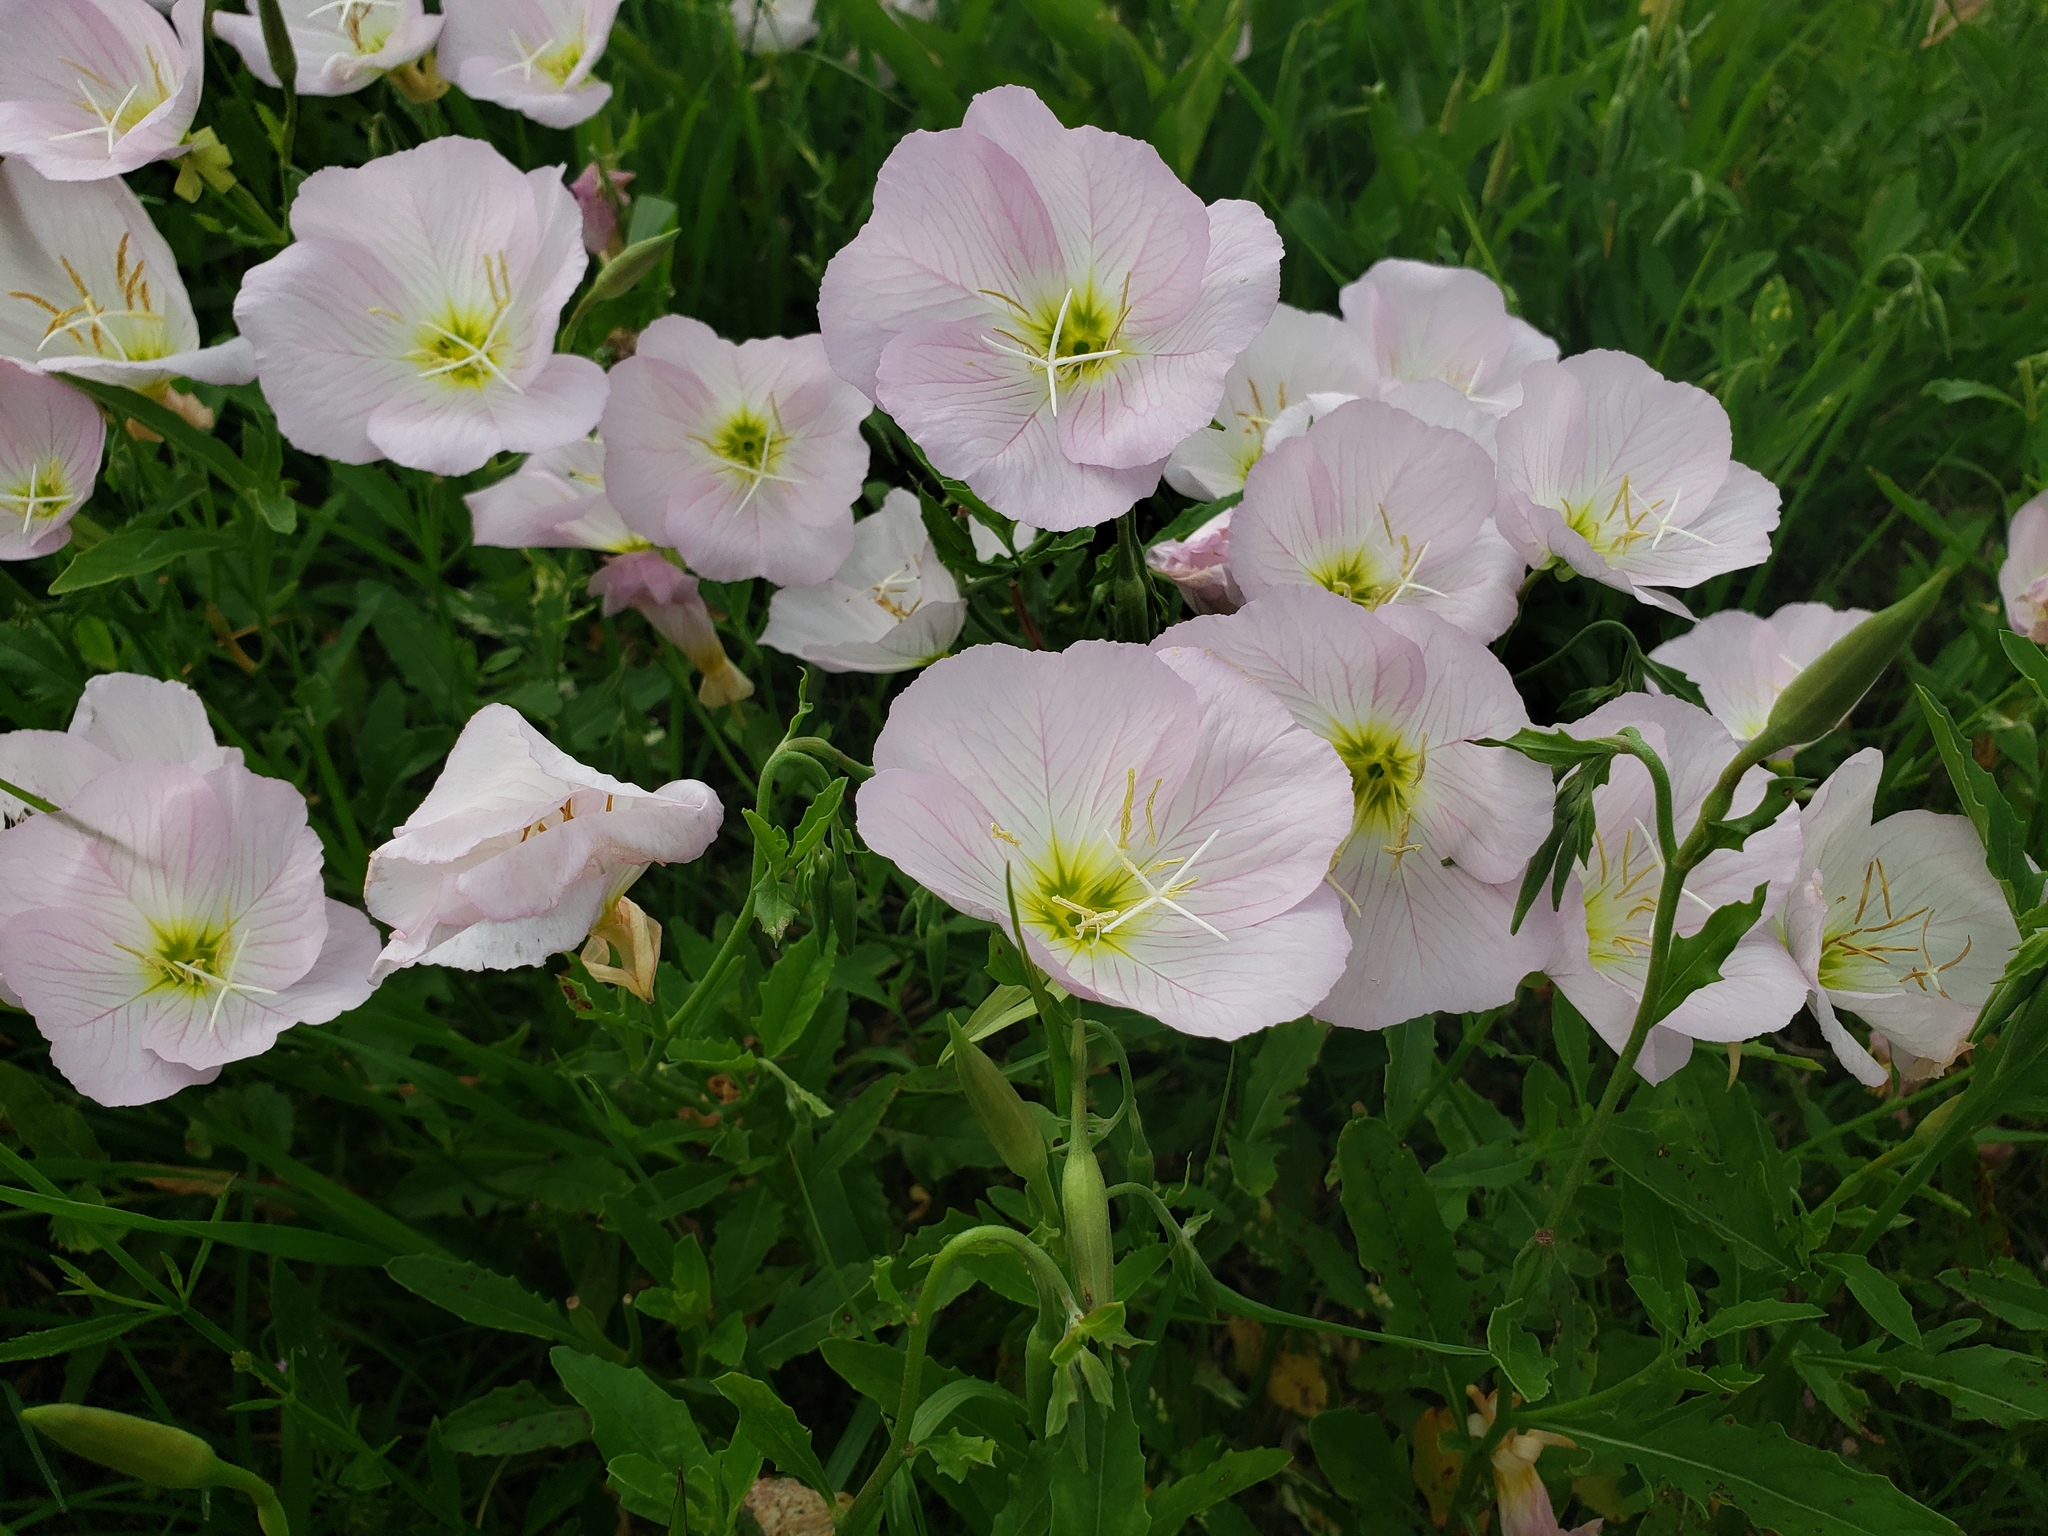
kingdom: Plantae
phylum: Tracheophyta
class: Magnoliopsida
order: Myrtales
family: Onagraceae
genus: Oenothera
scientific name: Oenothera speciosa
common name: White evening-primrose
